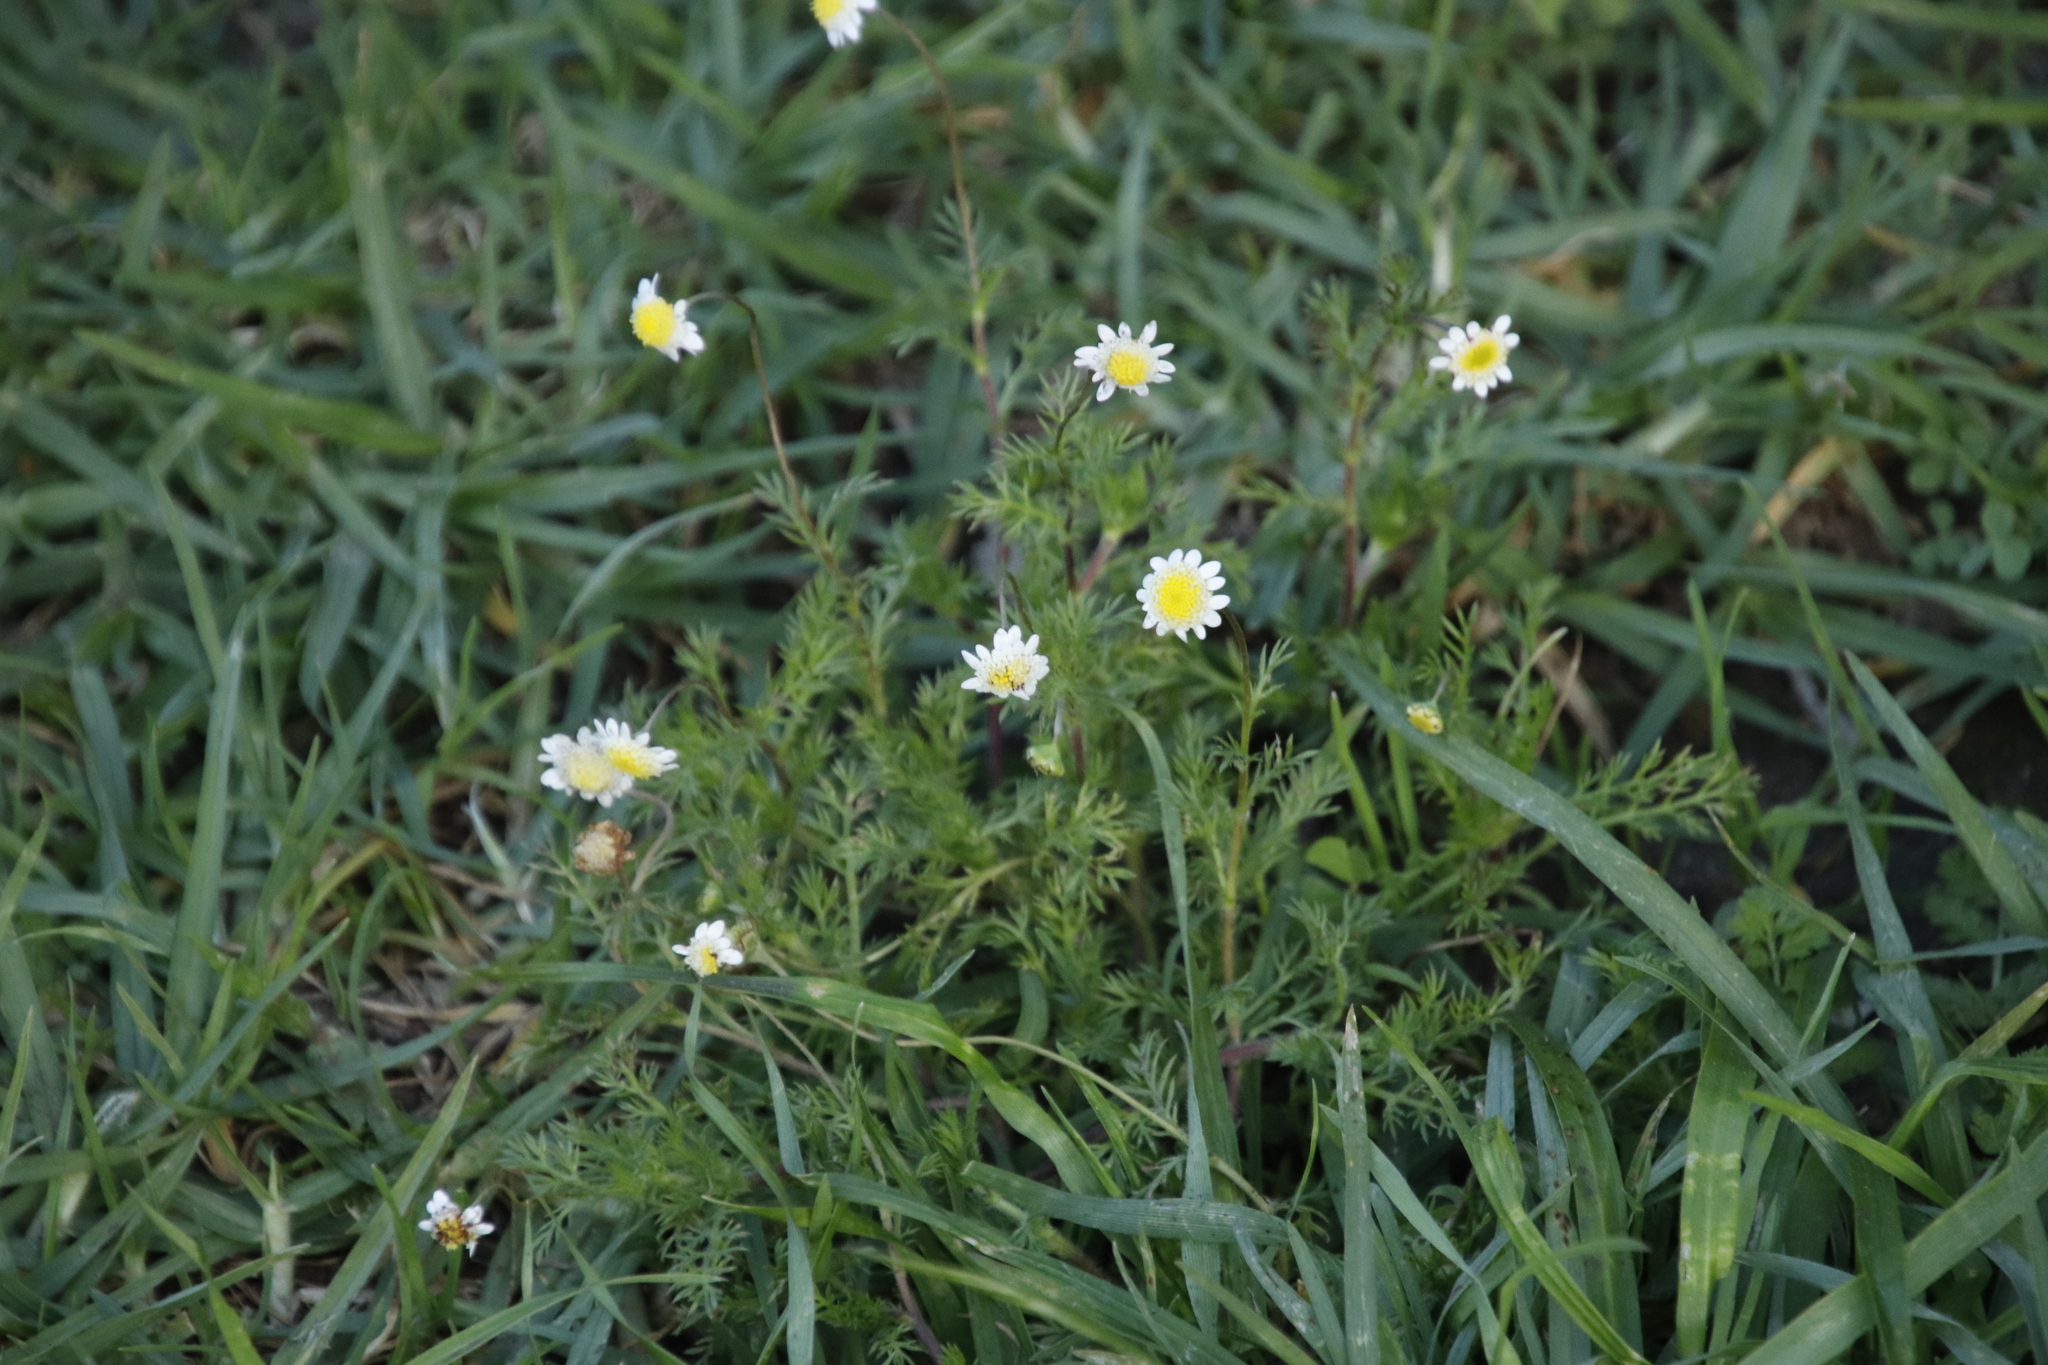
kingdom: Plantae
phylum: Tracheophyta
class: Magnoliopsida
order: Asterales
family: Asteraceae
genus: Cotula
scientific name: Cotula turbinata
